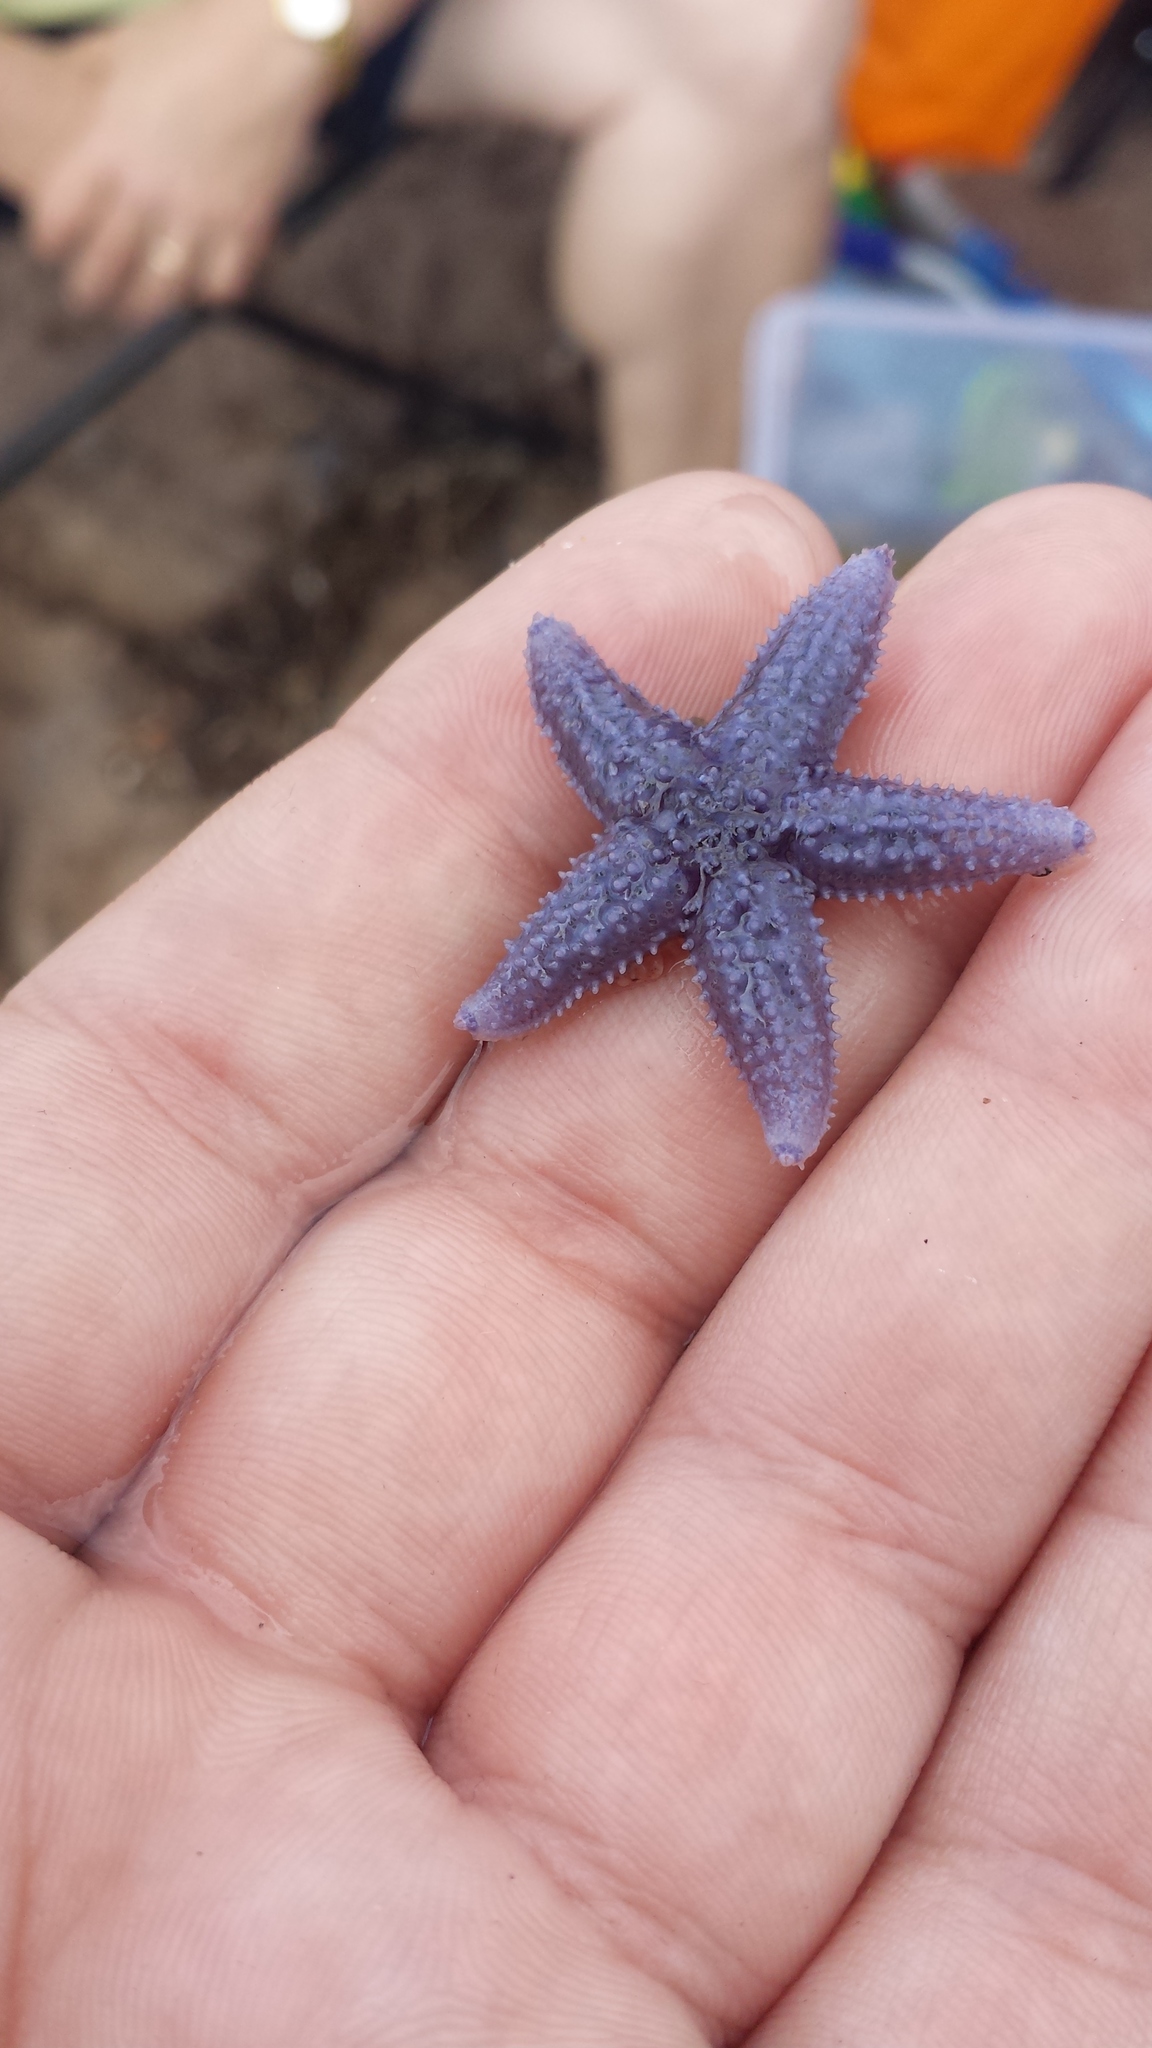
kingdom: Animalia
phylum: Echinodermata
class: Asteroidea
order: Forcipulatida
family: Asteriidae
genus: Asterias
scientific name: Asterias rubens
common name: Common starfish
